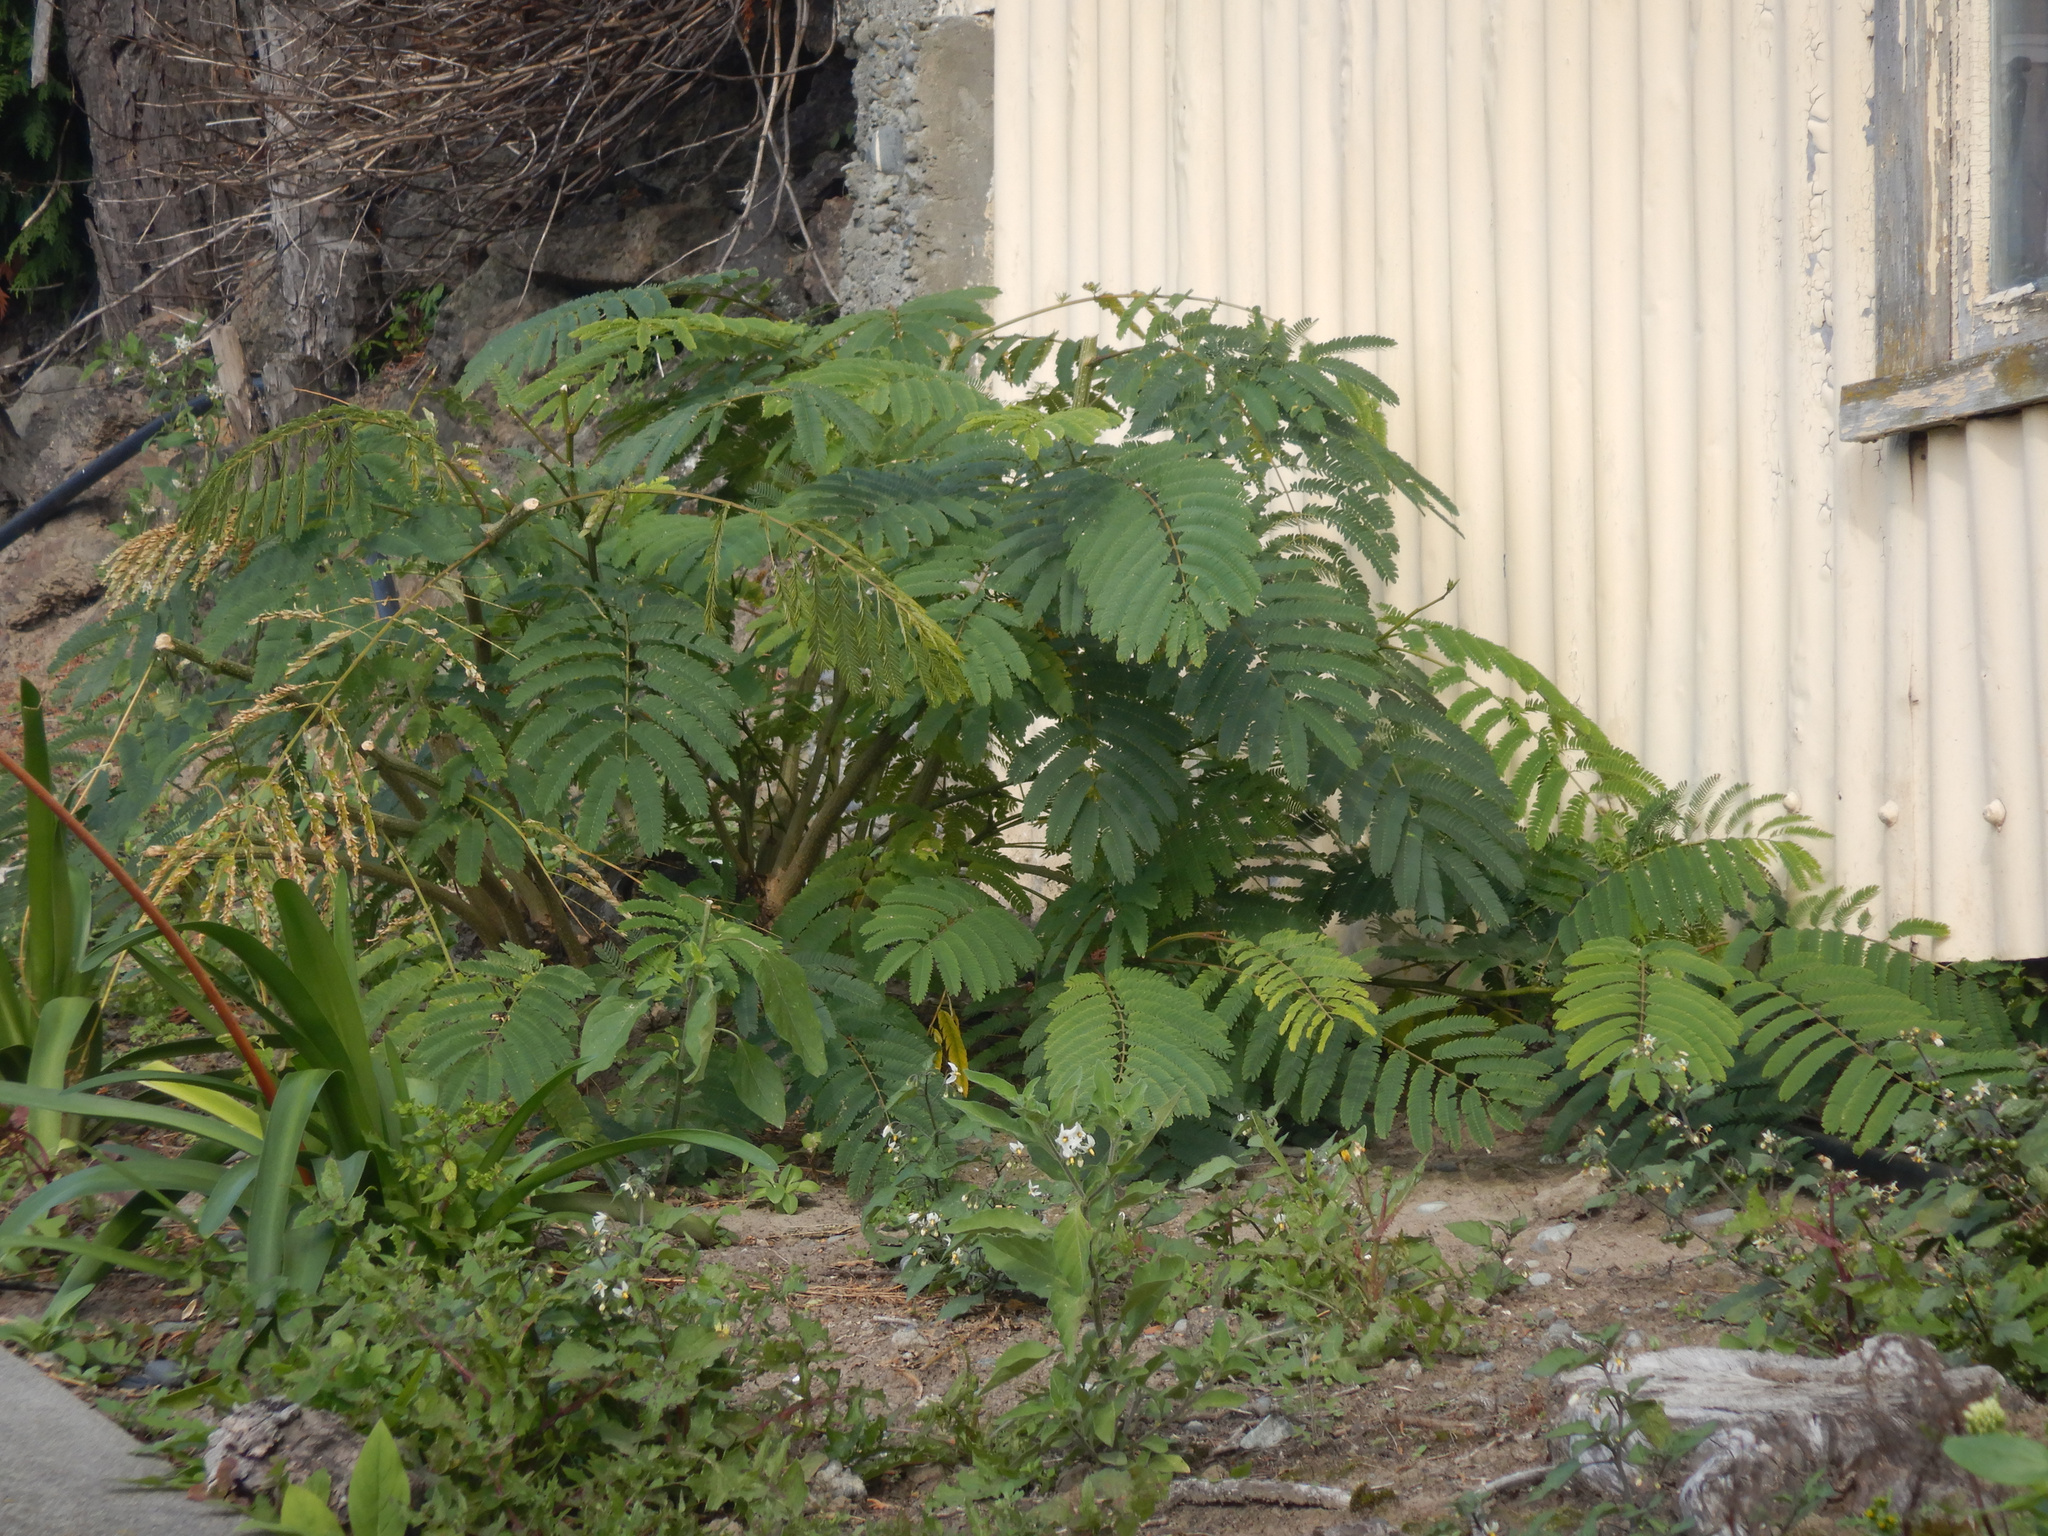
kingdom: Plantae
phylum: Tracheophyta
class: Magnoliopsida
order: Fabales
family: Fabaceae
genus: Paraserianthes
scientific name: Paraserianthes lophantha
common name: Plume albizia
